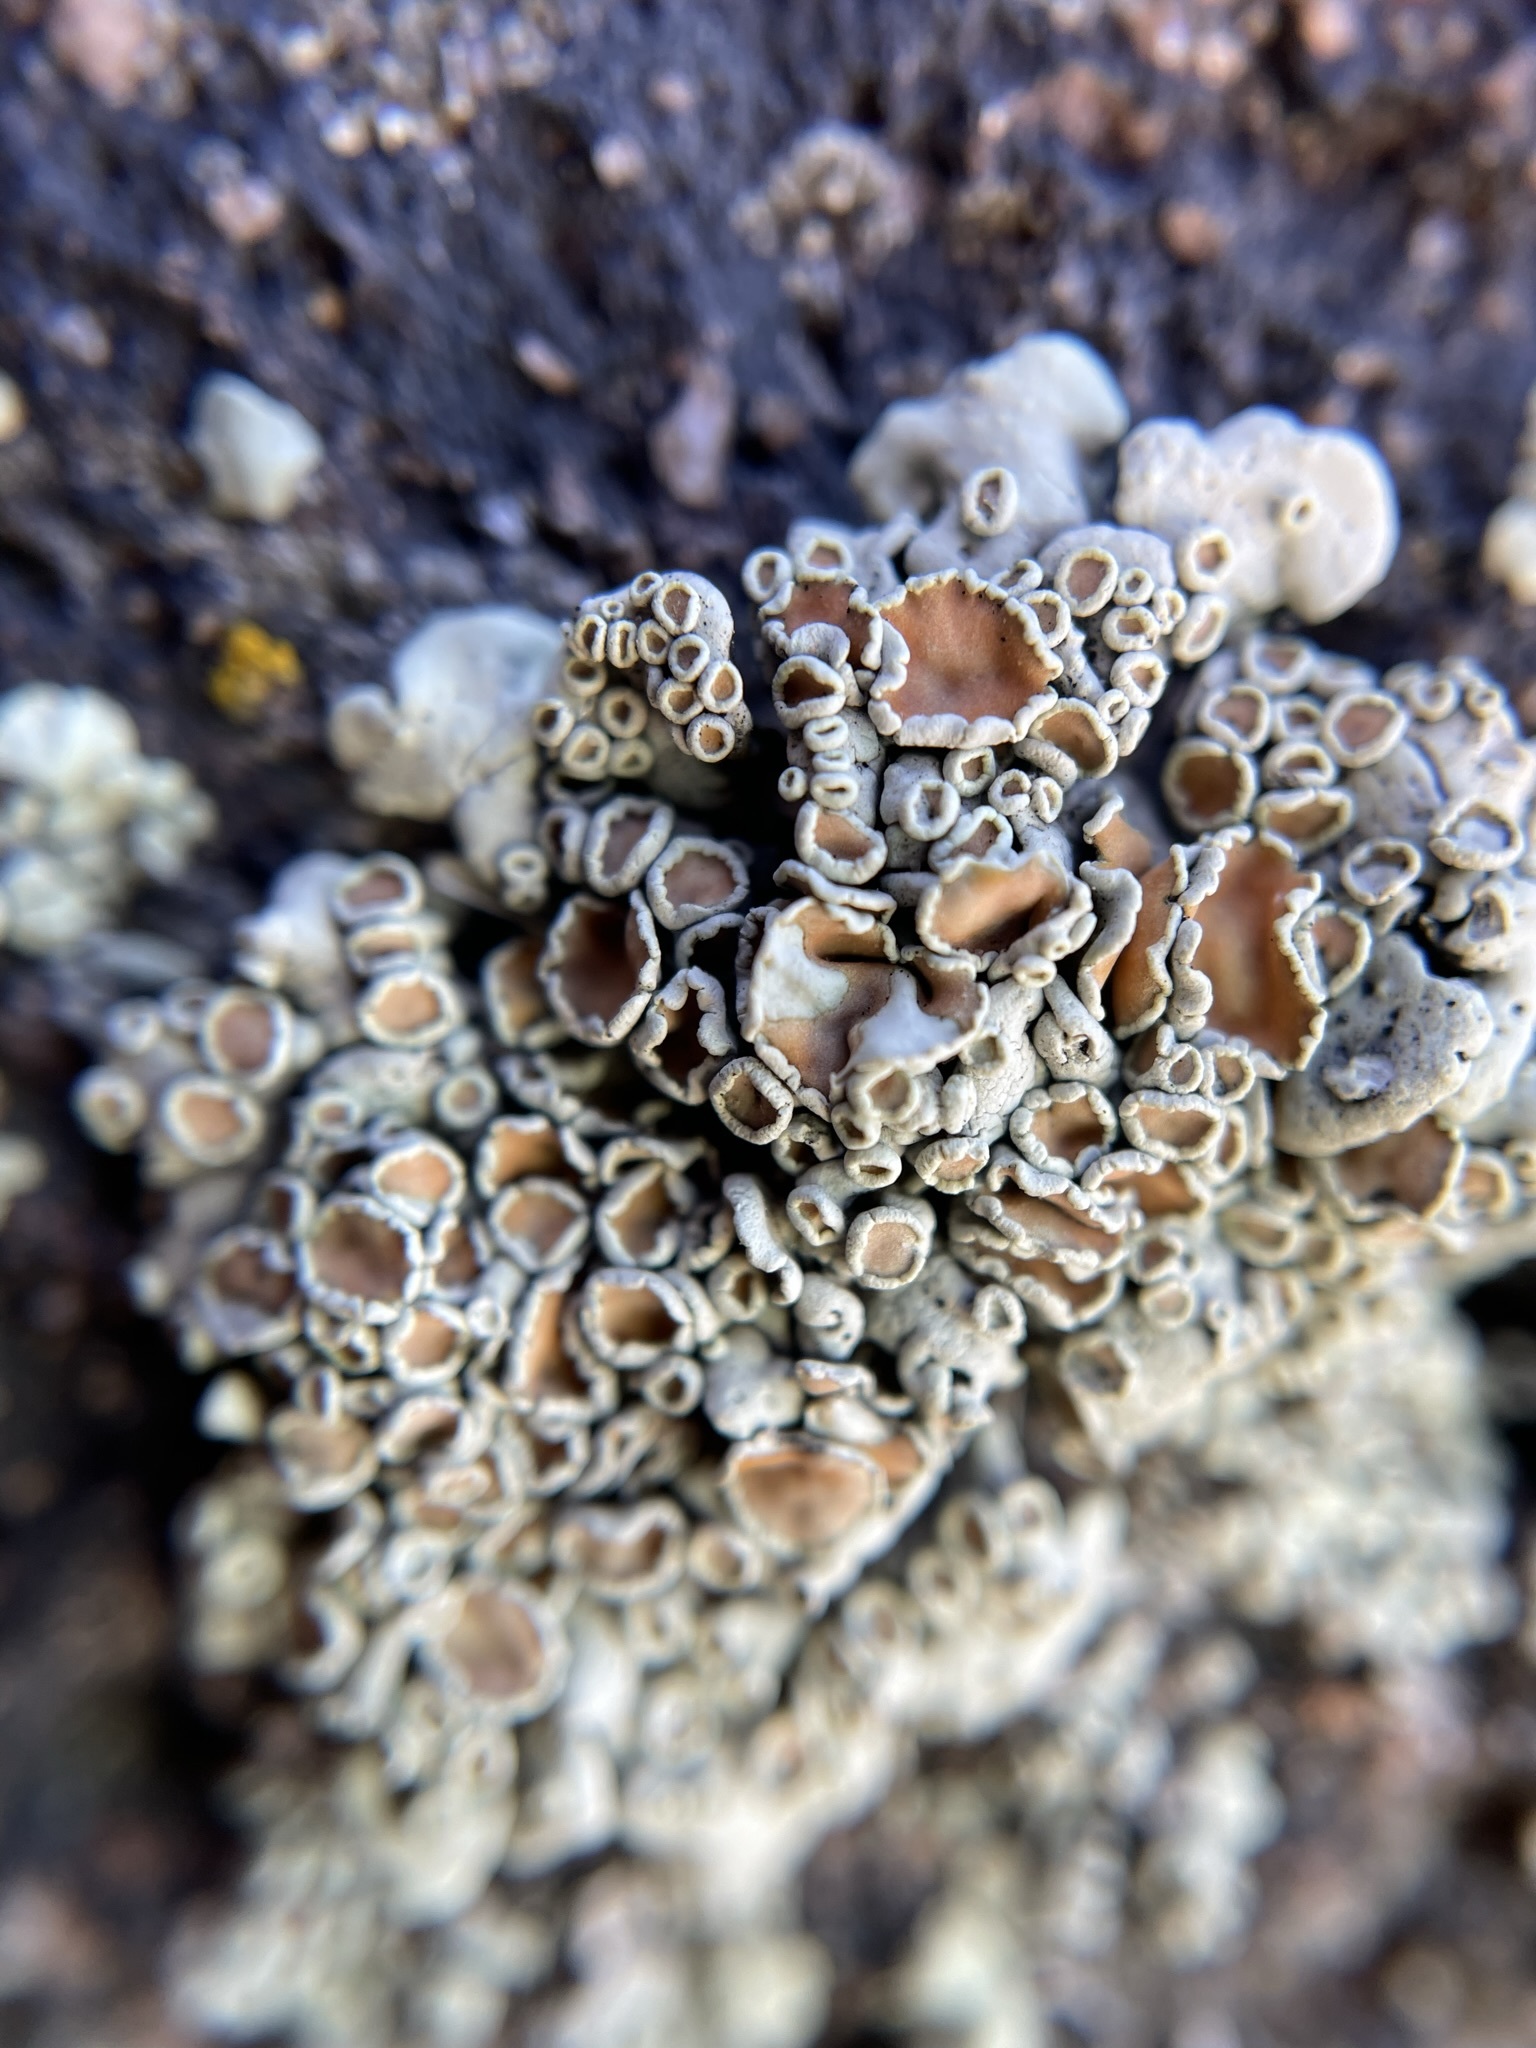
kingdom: Fungi
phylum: Ascomycota
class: Lecanoromycetes
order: Lecanorales
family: Lecanoraceae
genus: Omphalodina
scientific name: Omphalodina chrysoleuca
